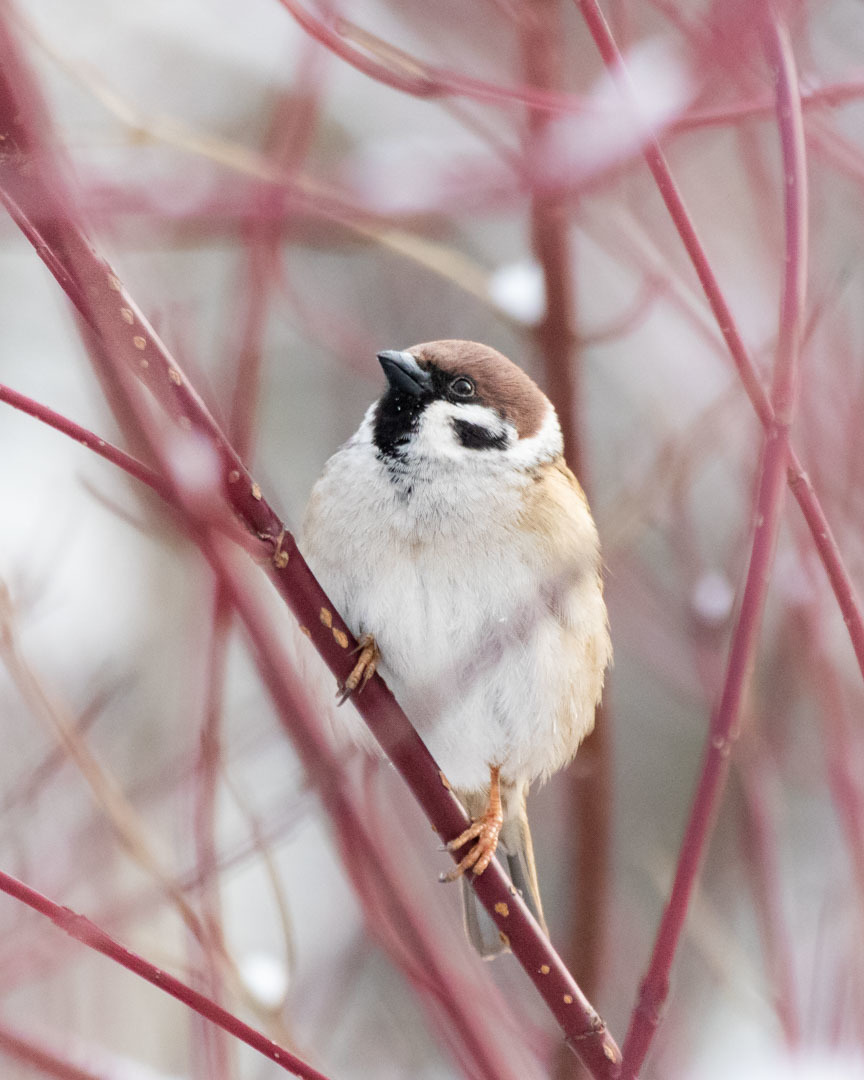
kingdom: Animalia
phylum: Chordata
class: Aves
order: Passeriformes
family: Passeridae
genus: Passer
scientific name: Passer montanus
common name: Eurasian tree sparrow
